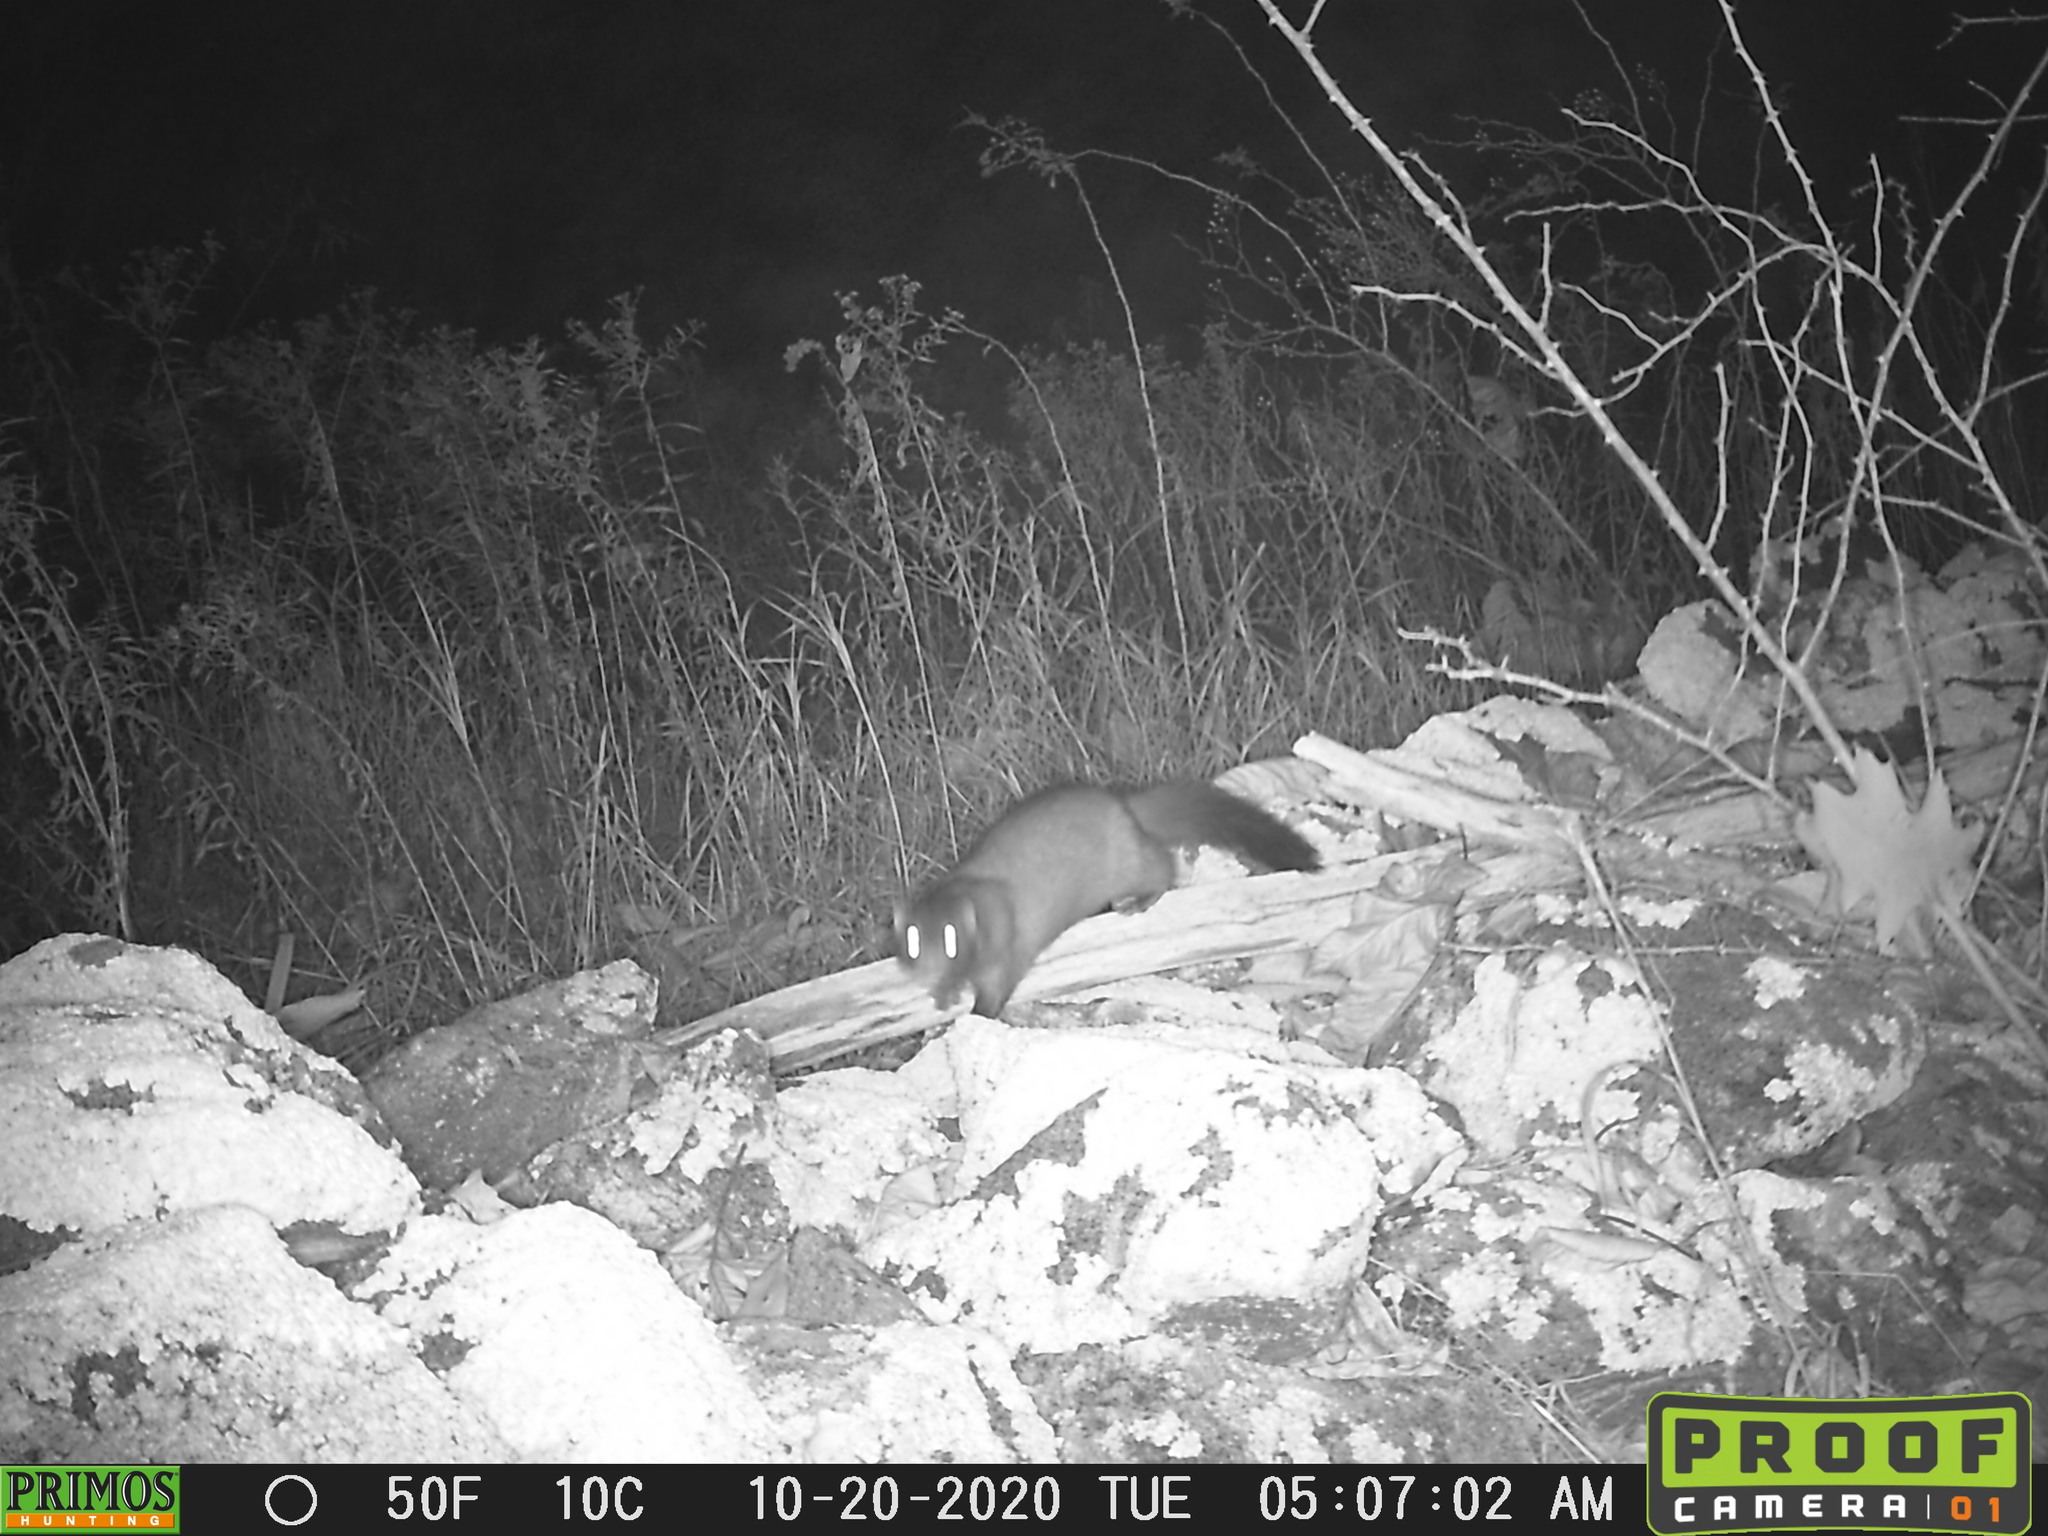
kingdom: Animalia
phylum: Chordata
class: Mammalia
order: Carnivora
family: Mustelidae
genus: Mustela
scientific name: Mustela
